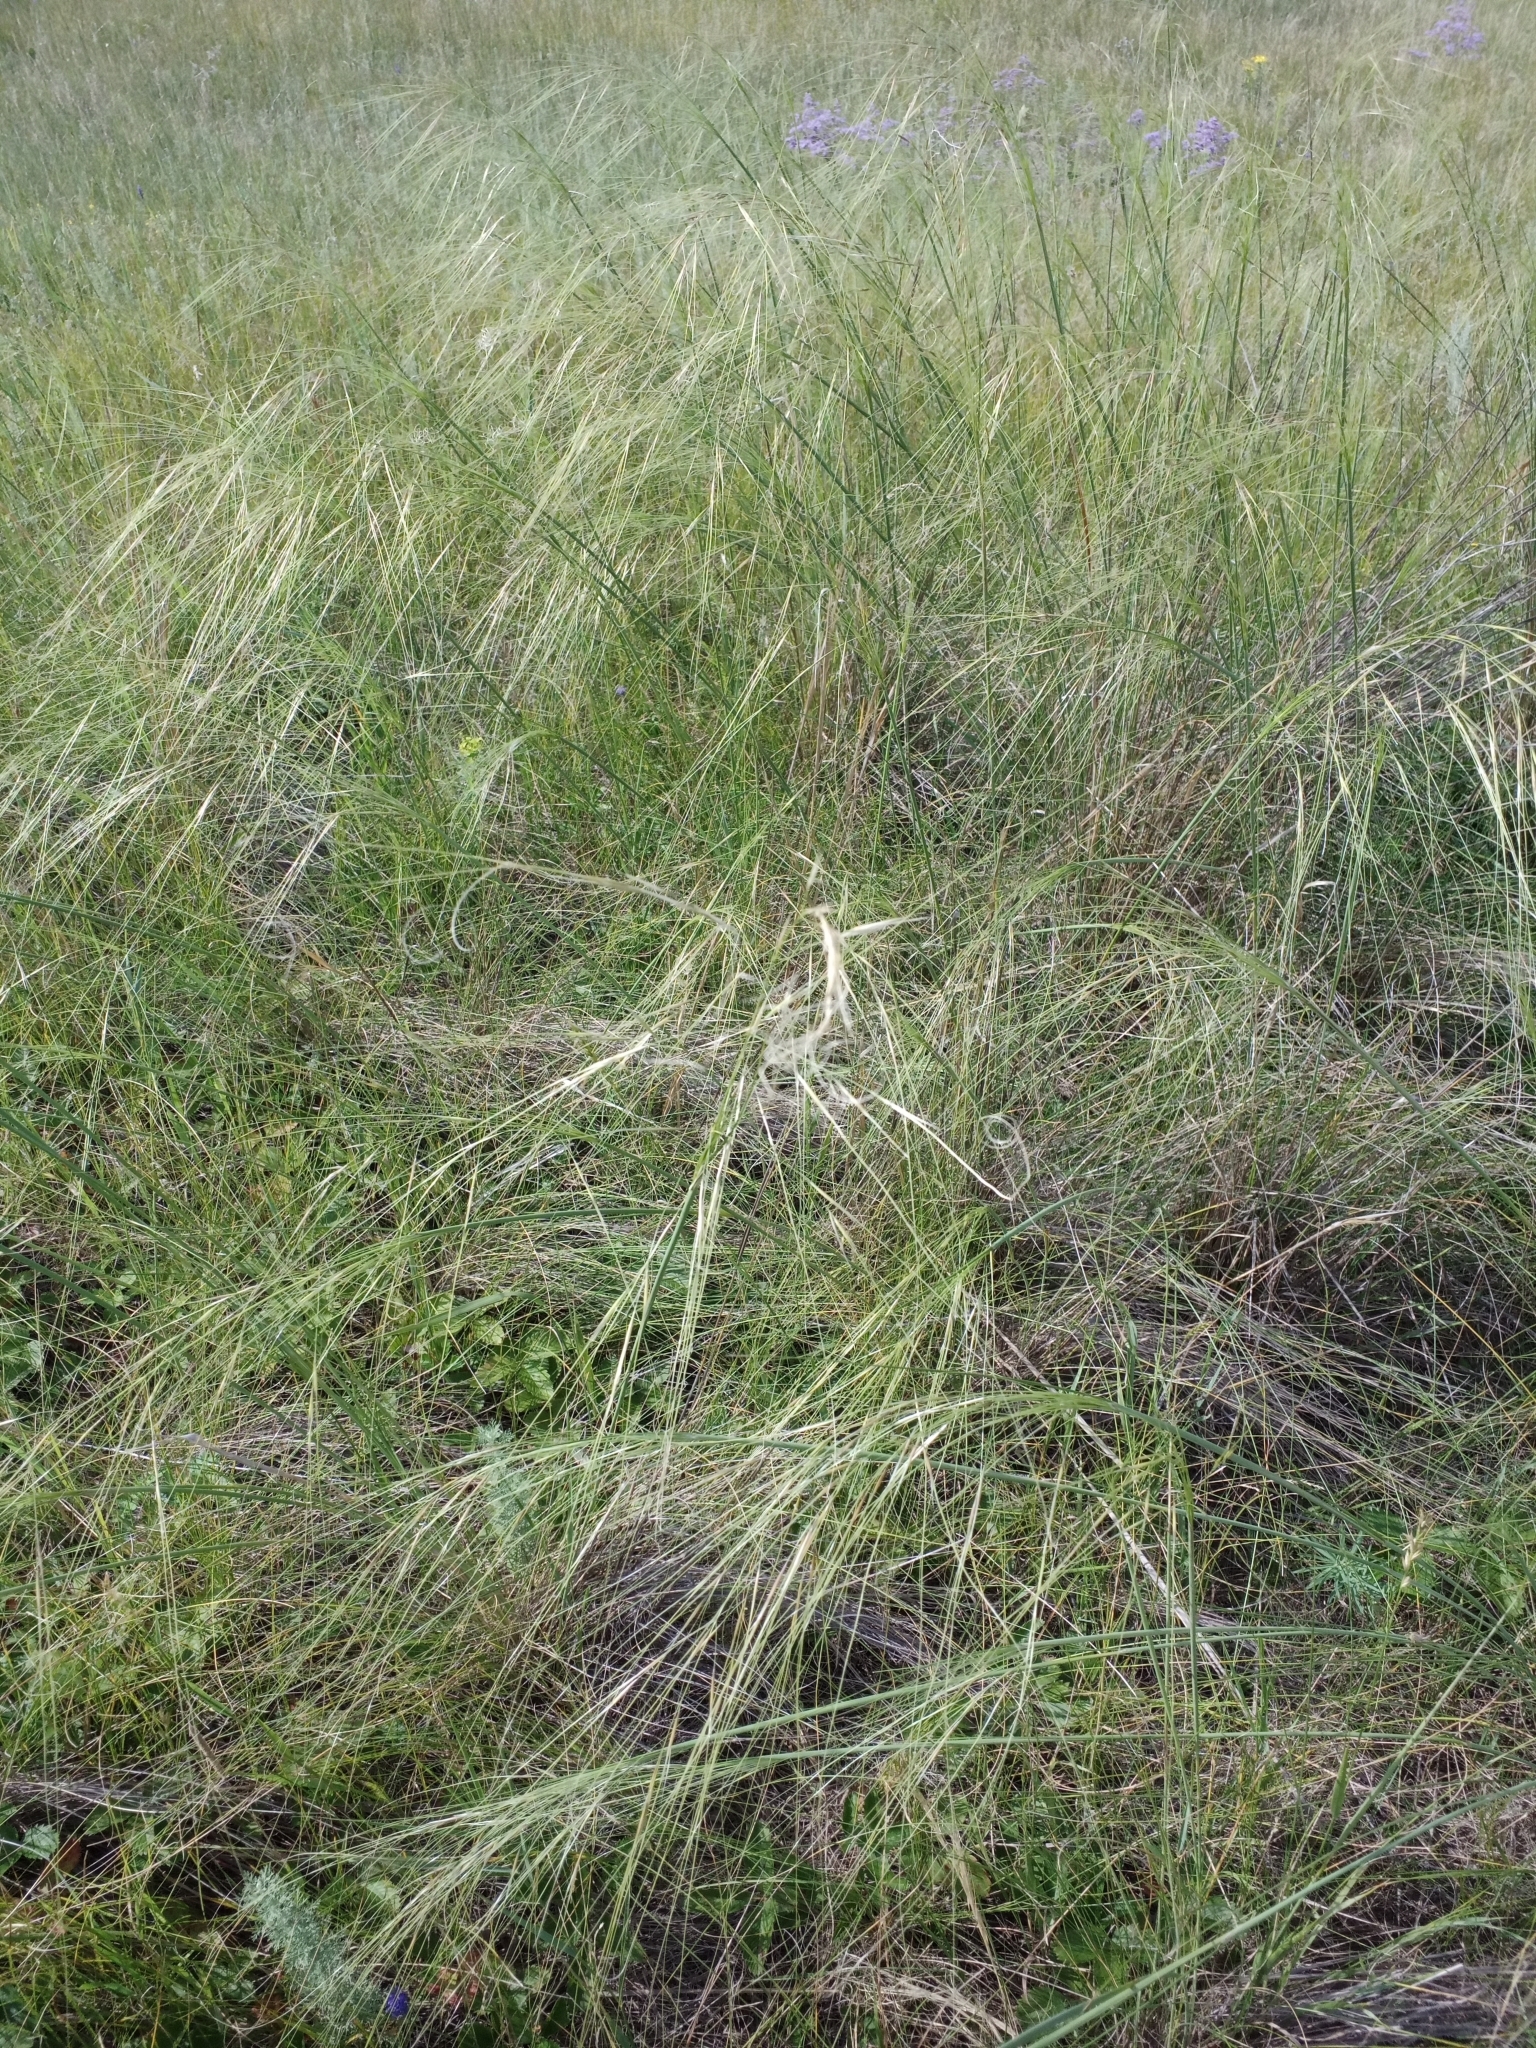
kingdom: Plantae
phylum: Tracheophyta
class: Liliopsida
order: Poales
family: Poaceae
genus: Stipa
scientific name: Stipa capillata
